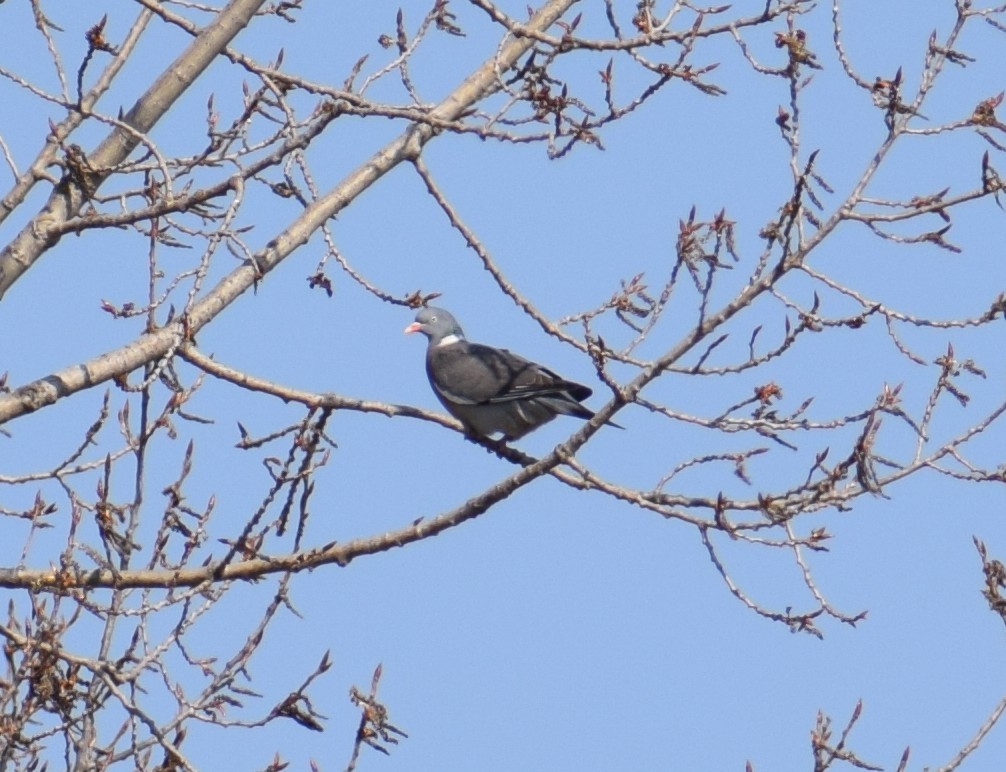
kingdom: Animalia
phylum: Chordata
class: Aves
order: Columbiformes
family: Columbidae
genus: Columba
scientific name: Columba palumbus
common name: Common wood pigeon
